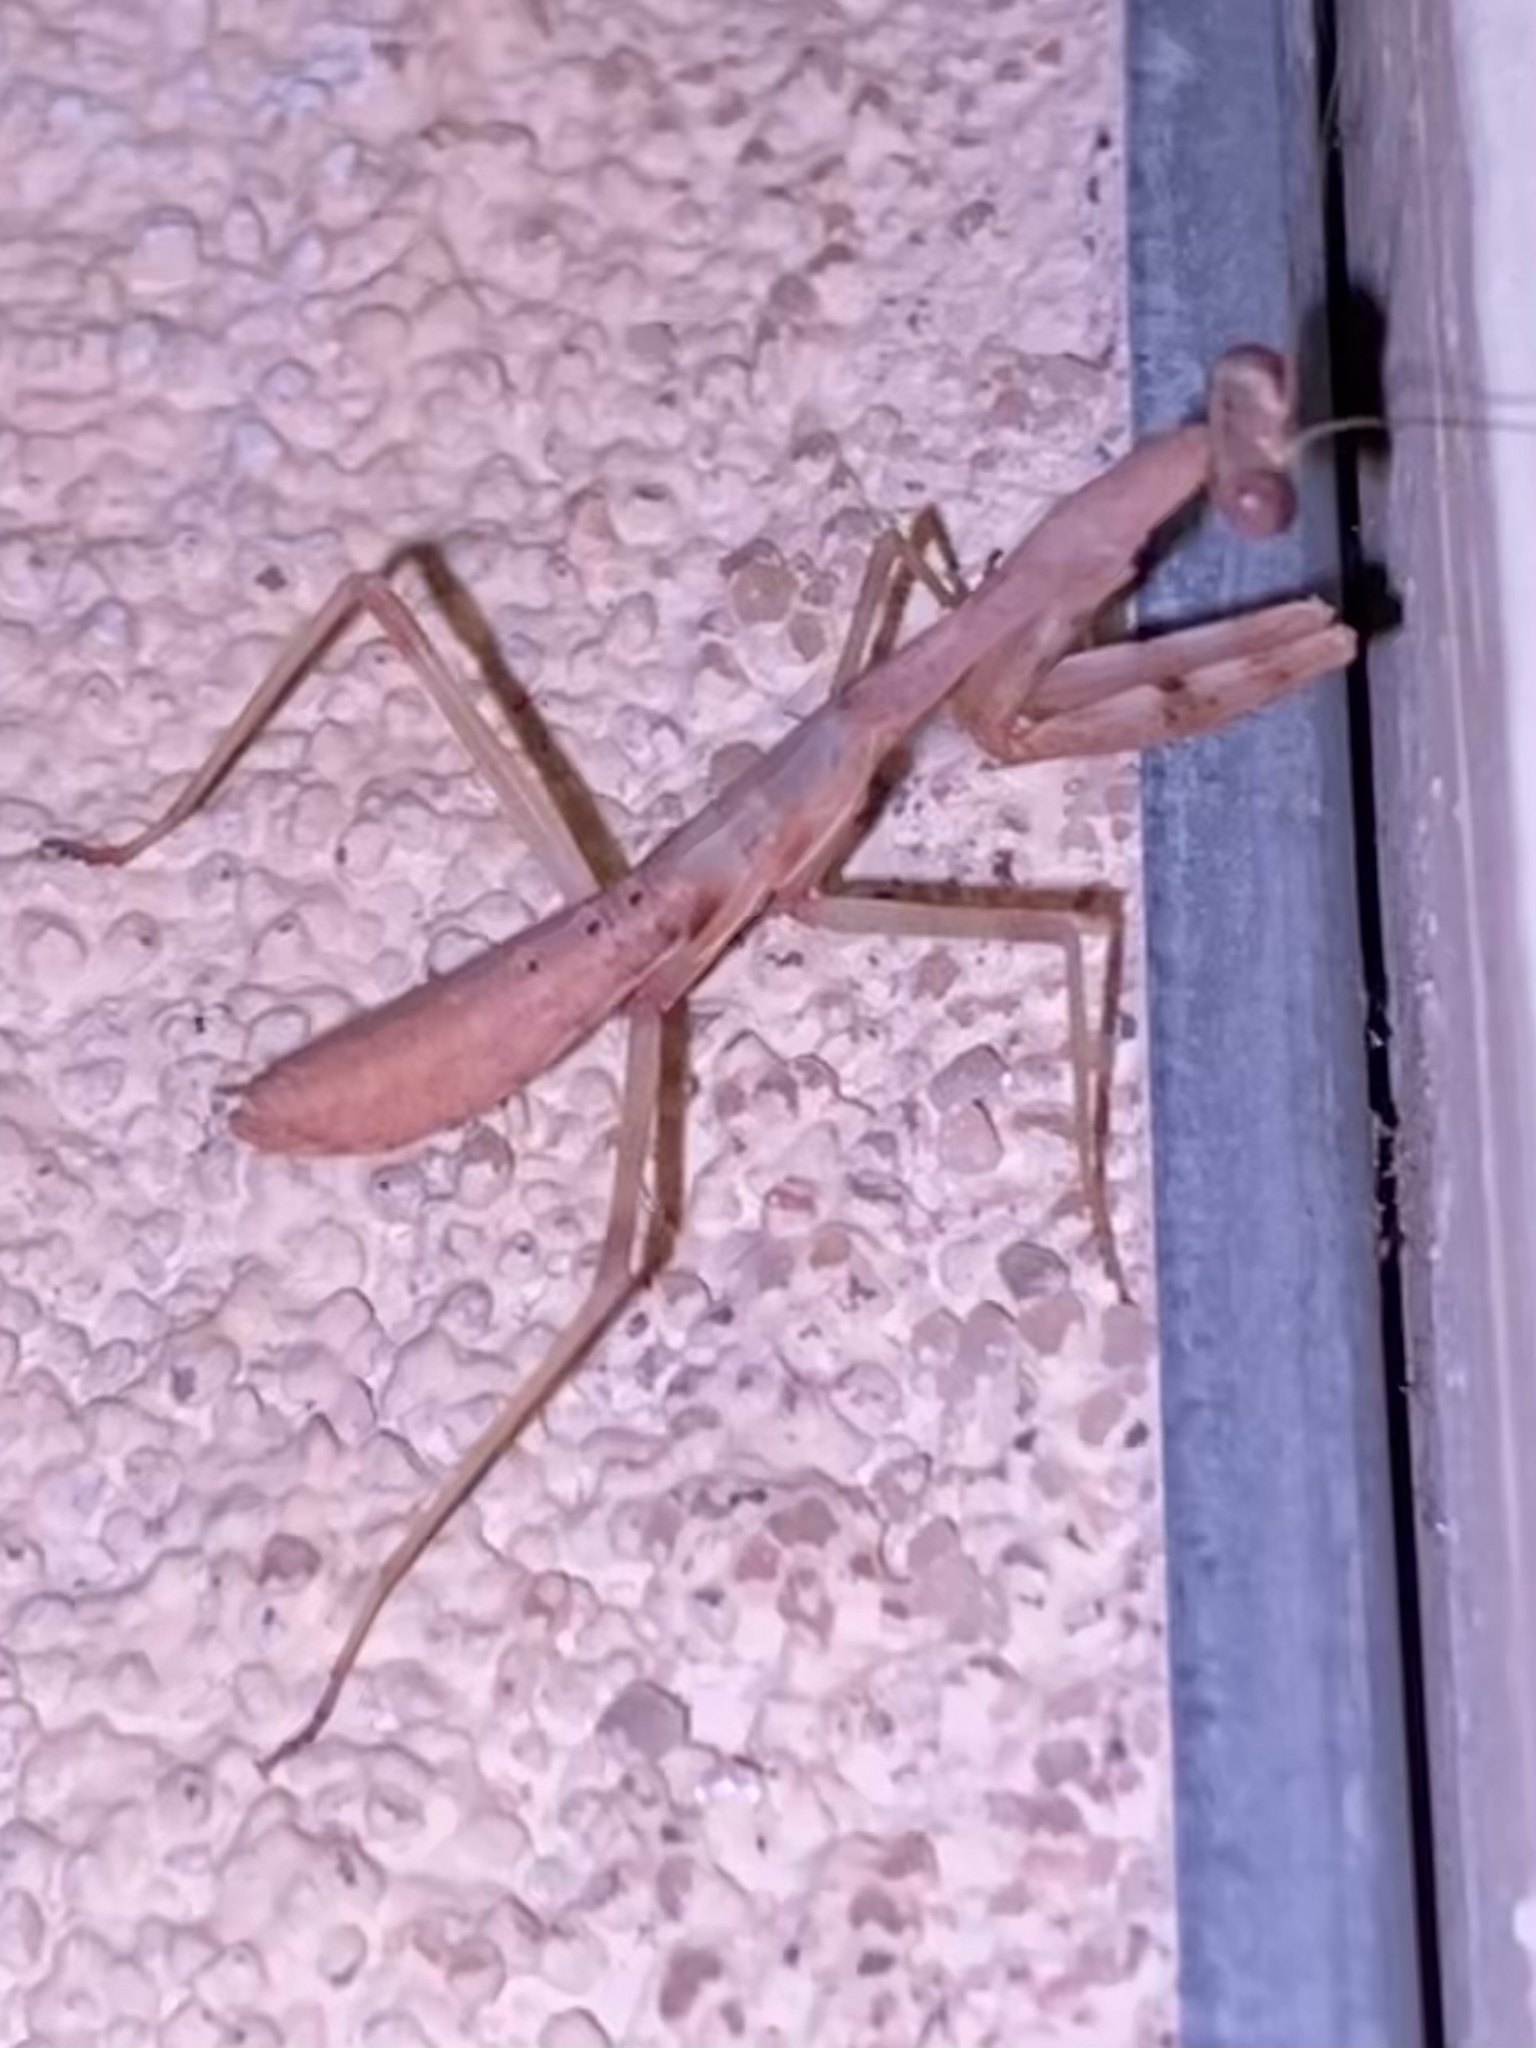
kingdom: Animalia
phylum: Arthropoda
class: Insecta
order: Mantodea
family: Mantidae
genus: Stagmomantis
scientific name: Stagmomantis
